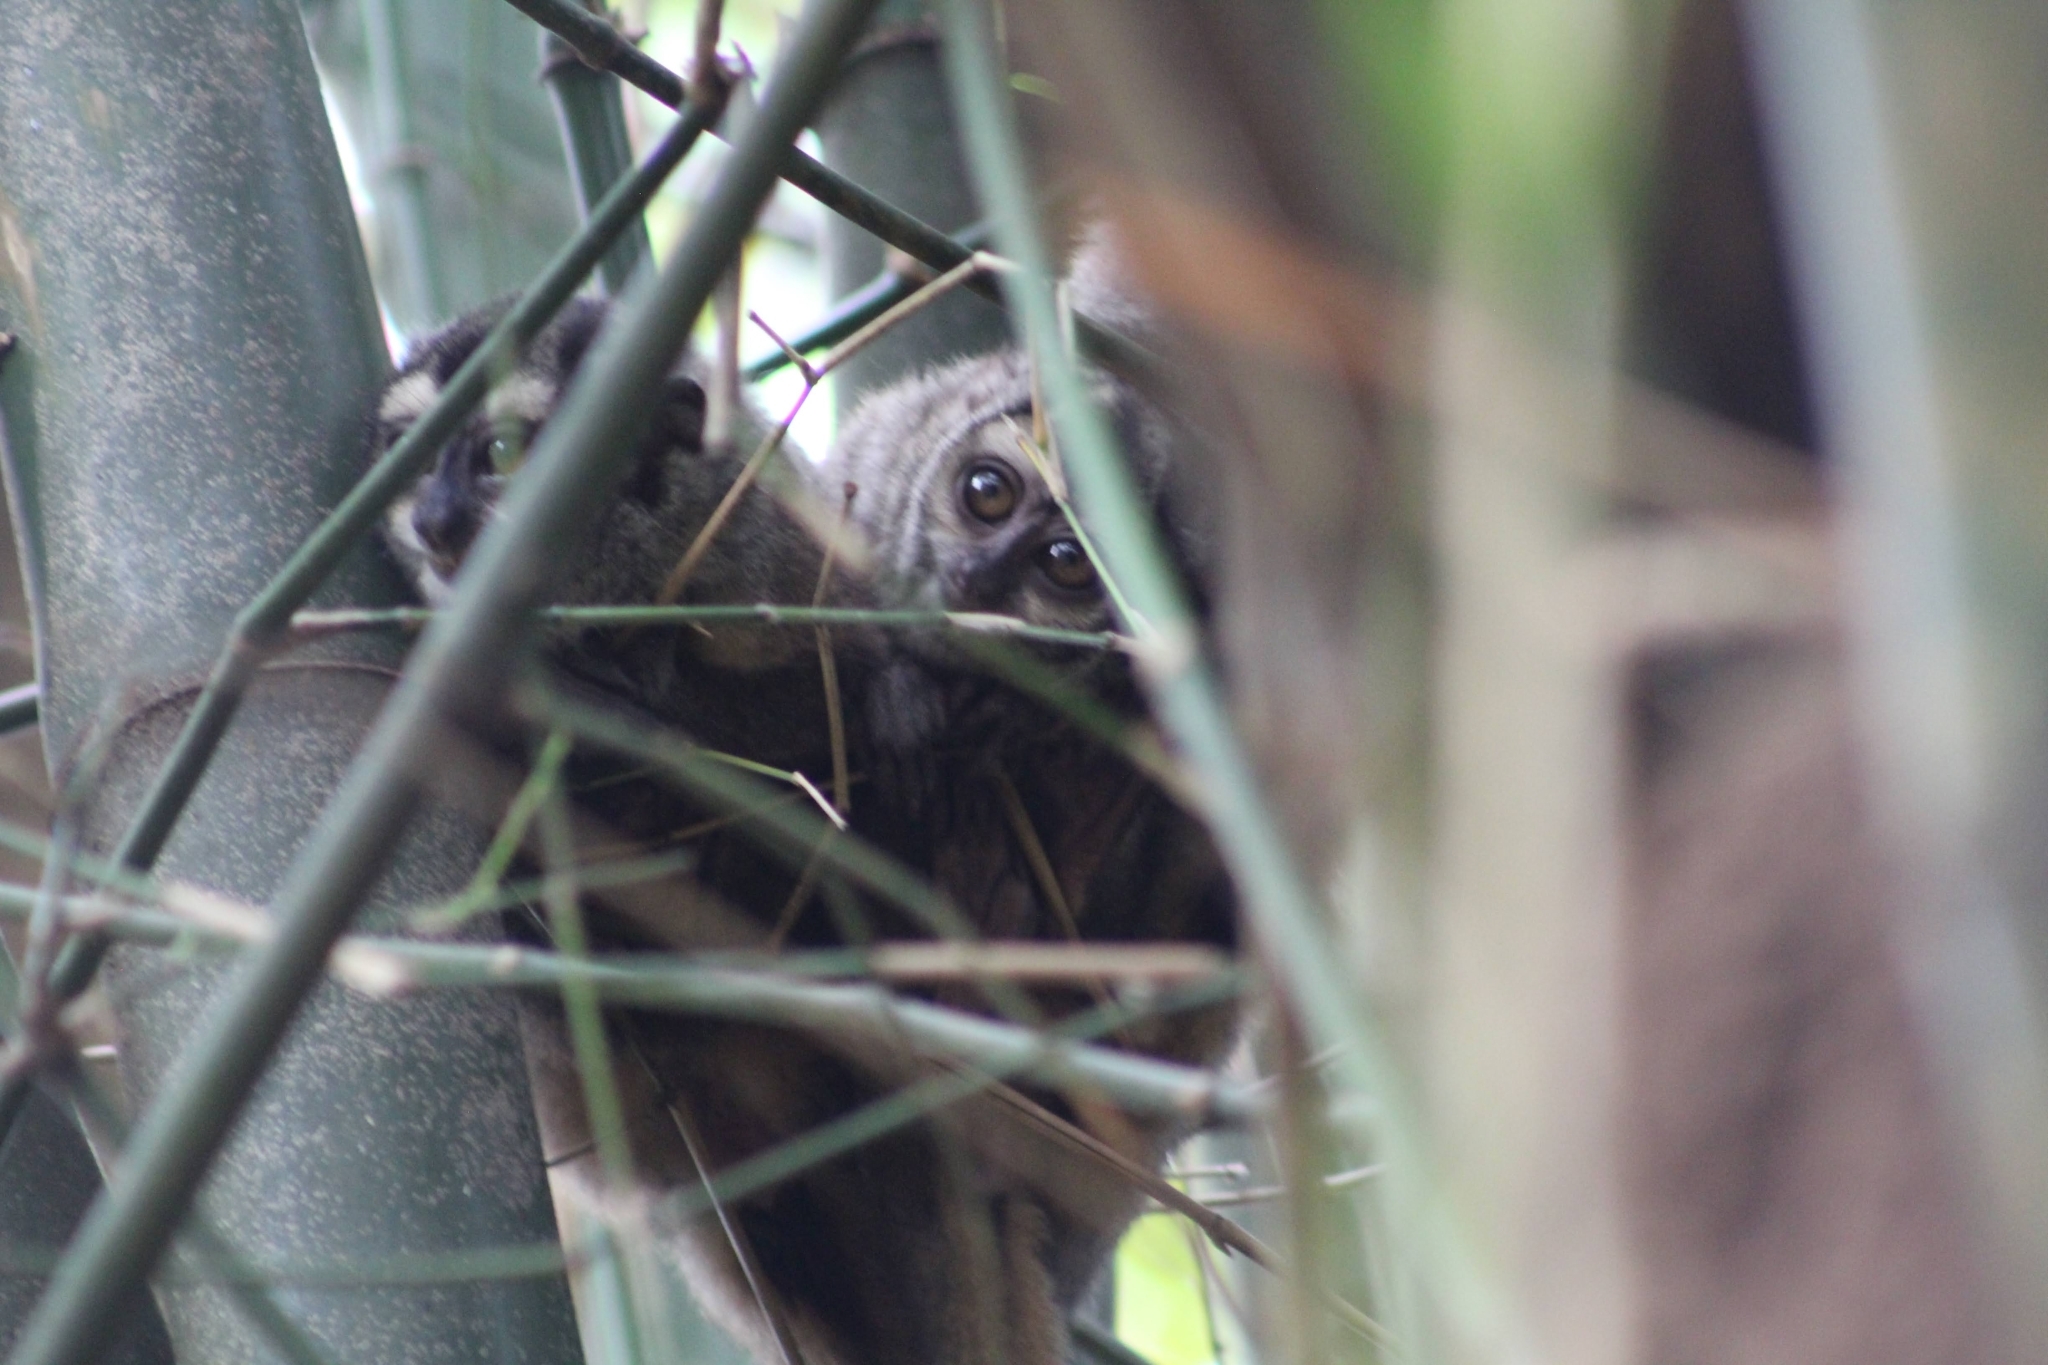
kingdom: Animalia
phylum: Chordata
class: Mammalia
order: Primates
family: Aotidae
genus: Aotus
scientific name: Aotus brumbacki
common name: Brumback's night monkey
